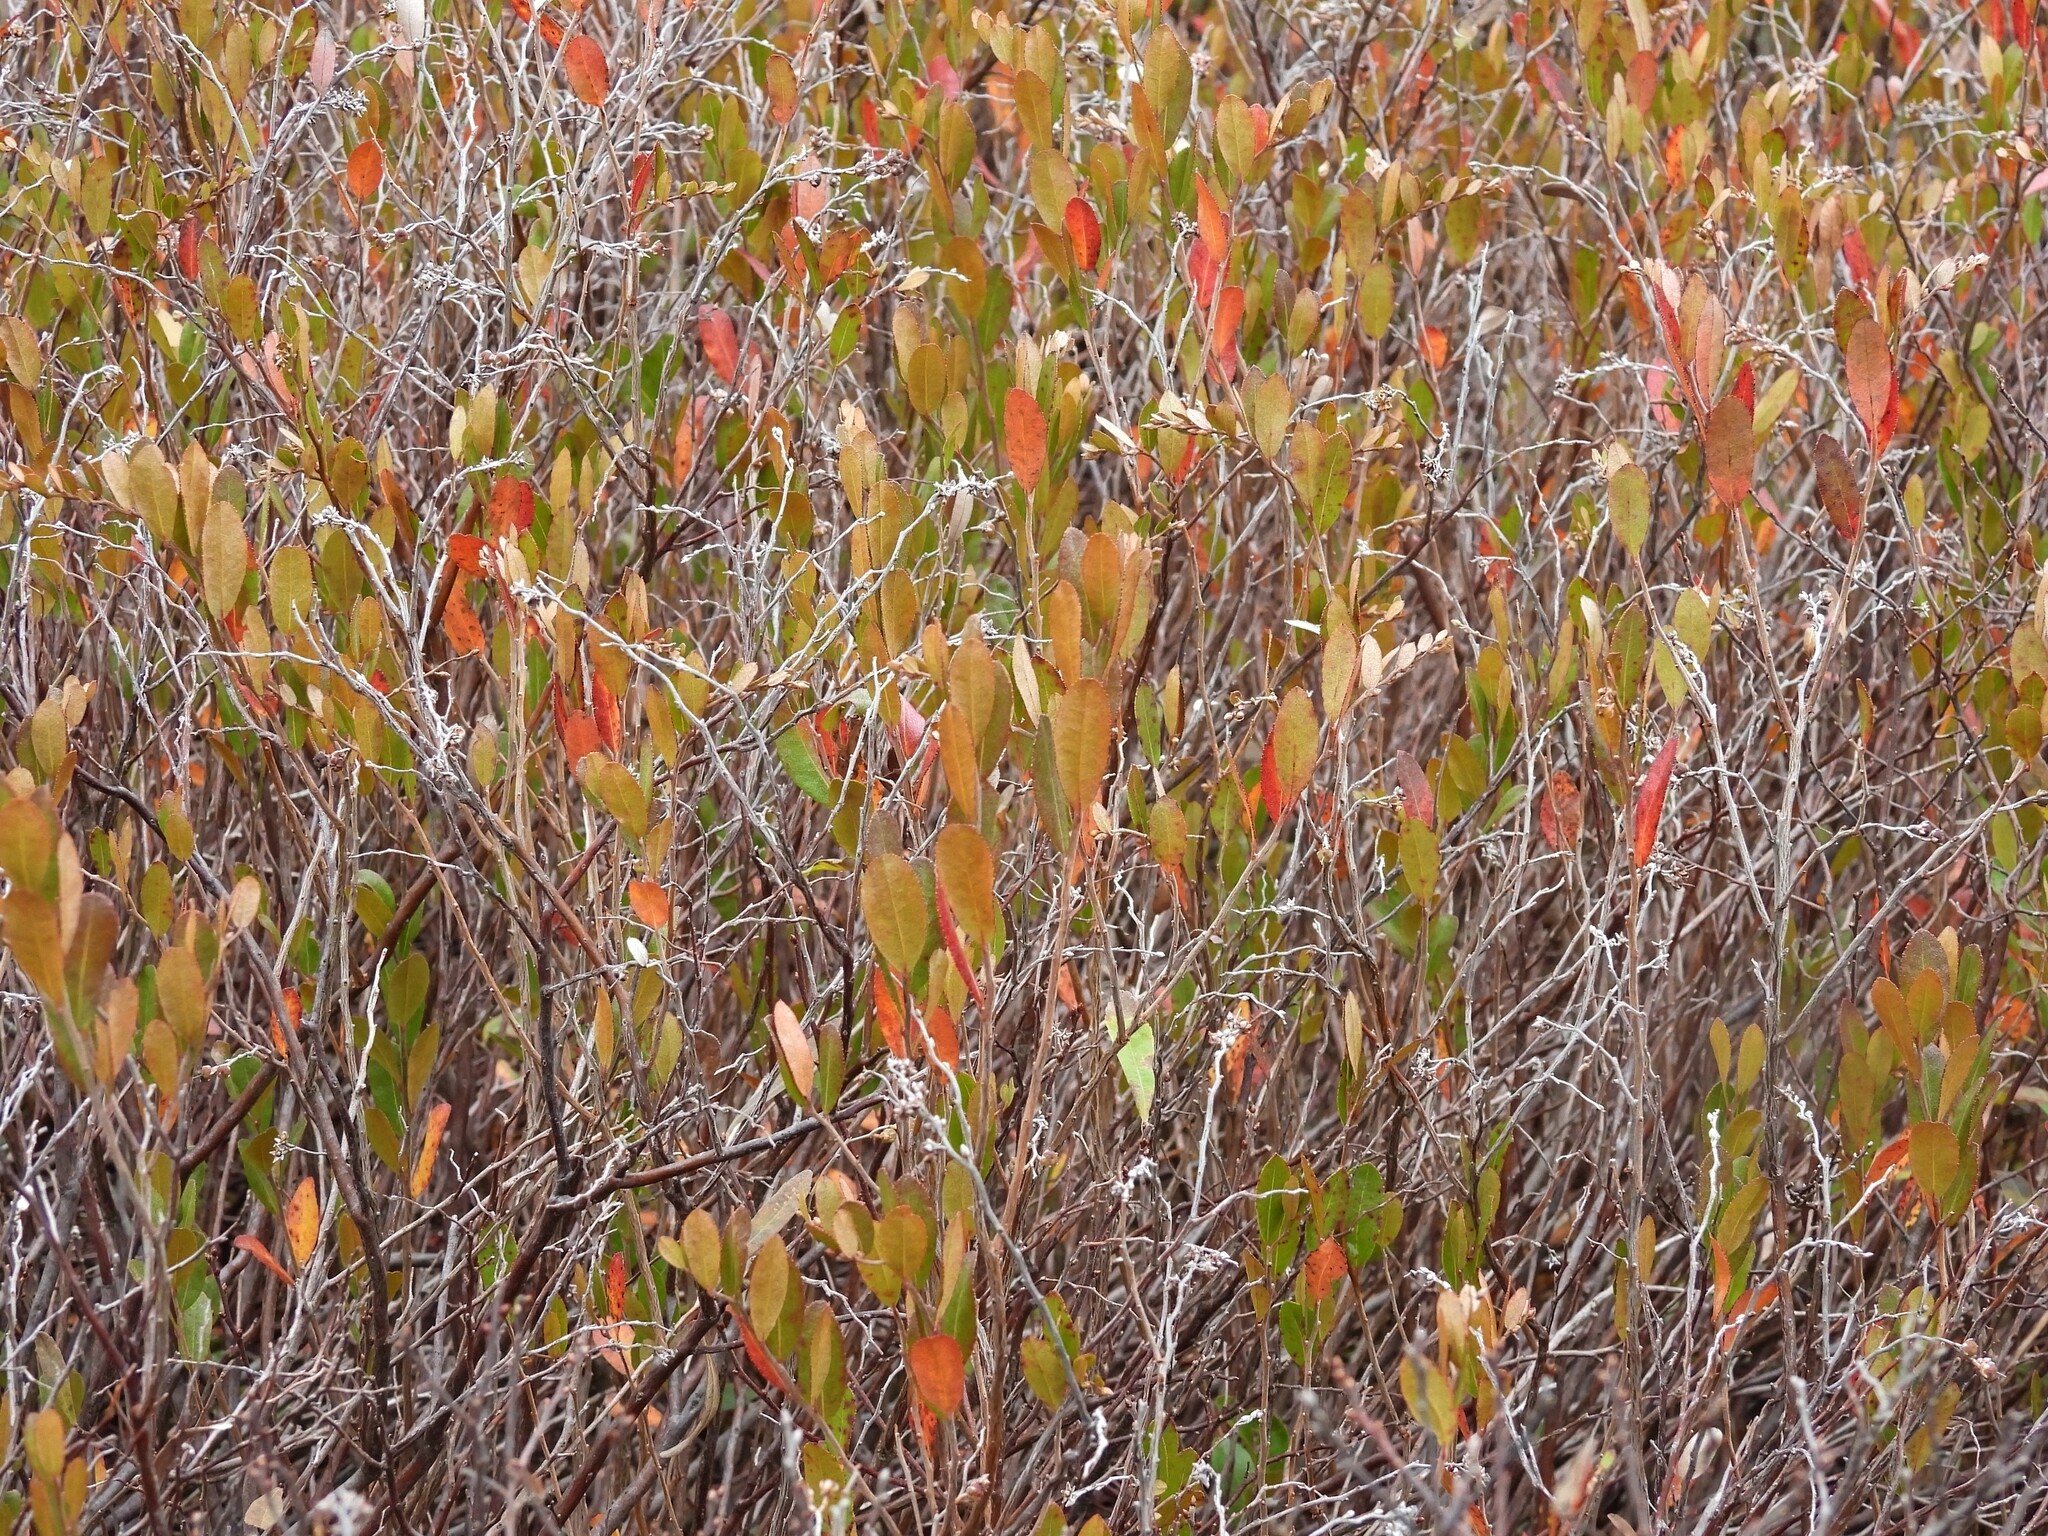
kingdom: Plantae
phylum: Tracheophyta
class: Magnoliopsida
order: Ericales
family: Ericaceae
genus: Chamaedaphne
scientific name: Chamaedaphne calyculata
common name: Leatherleaf
